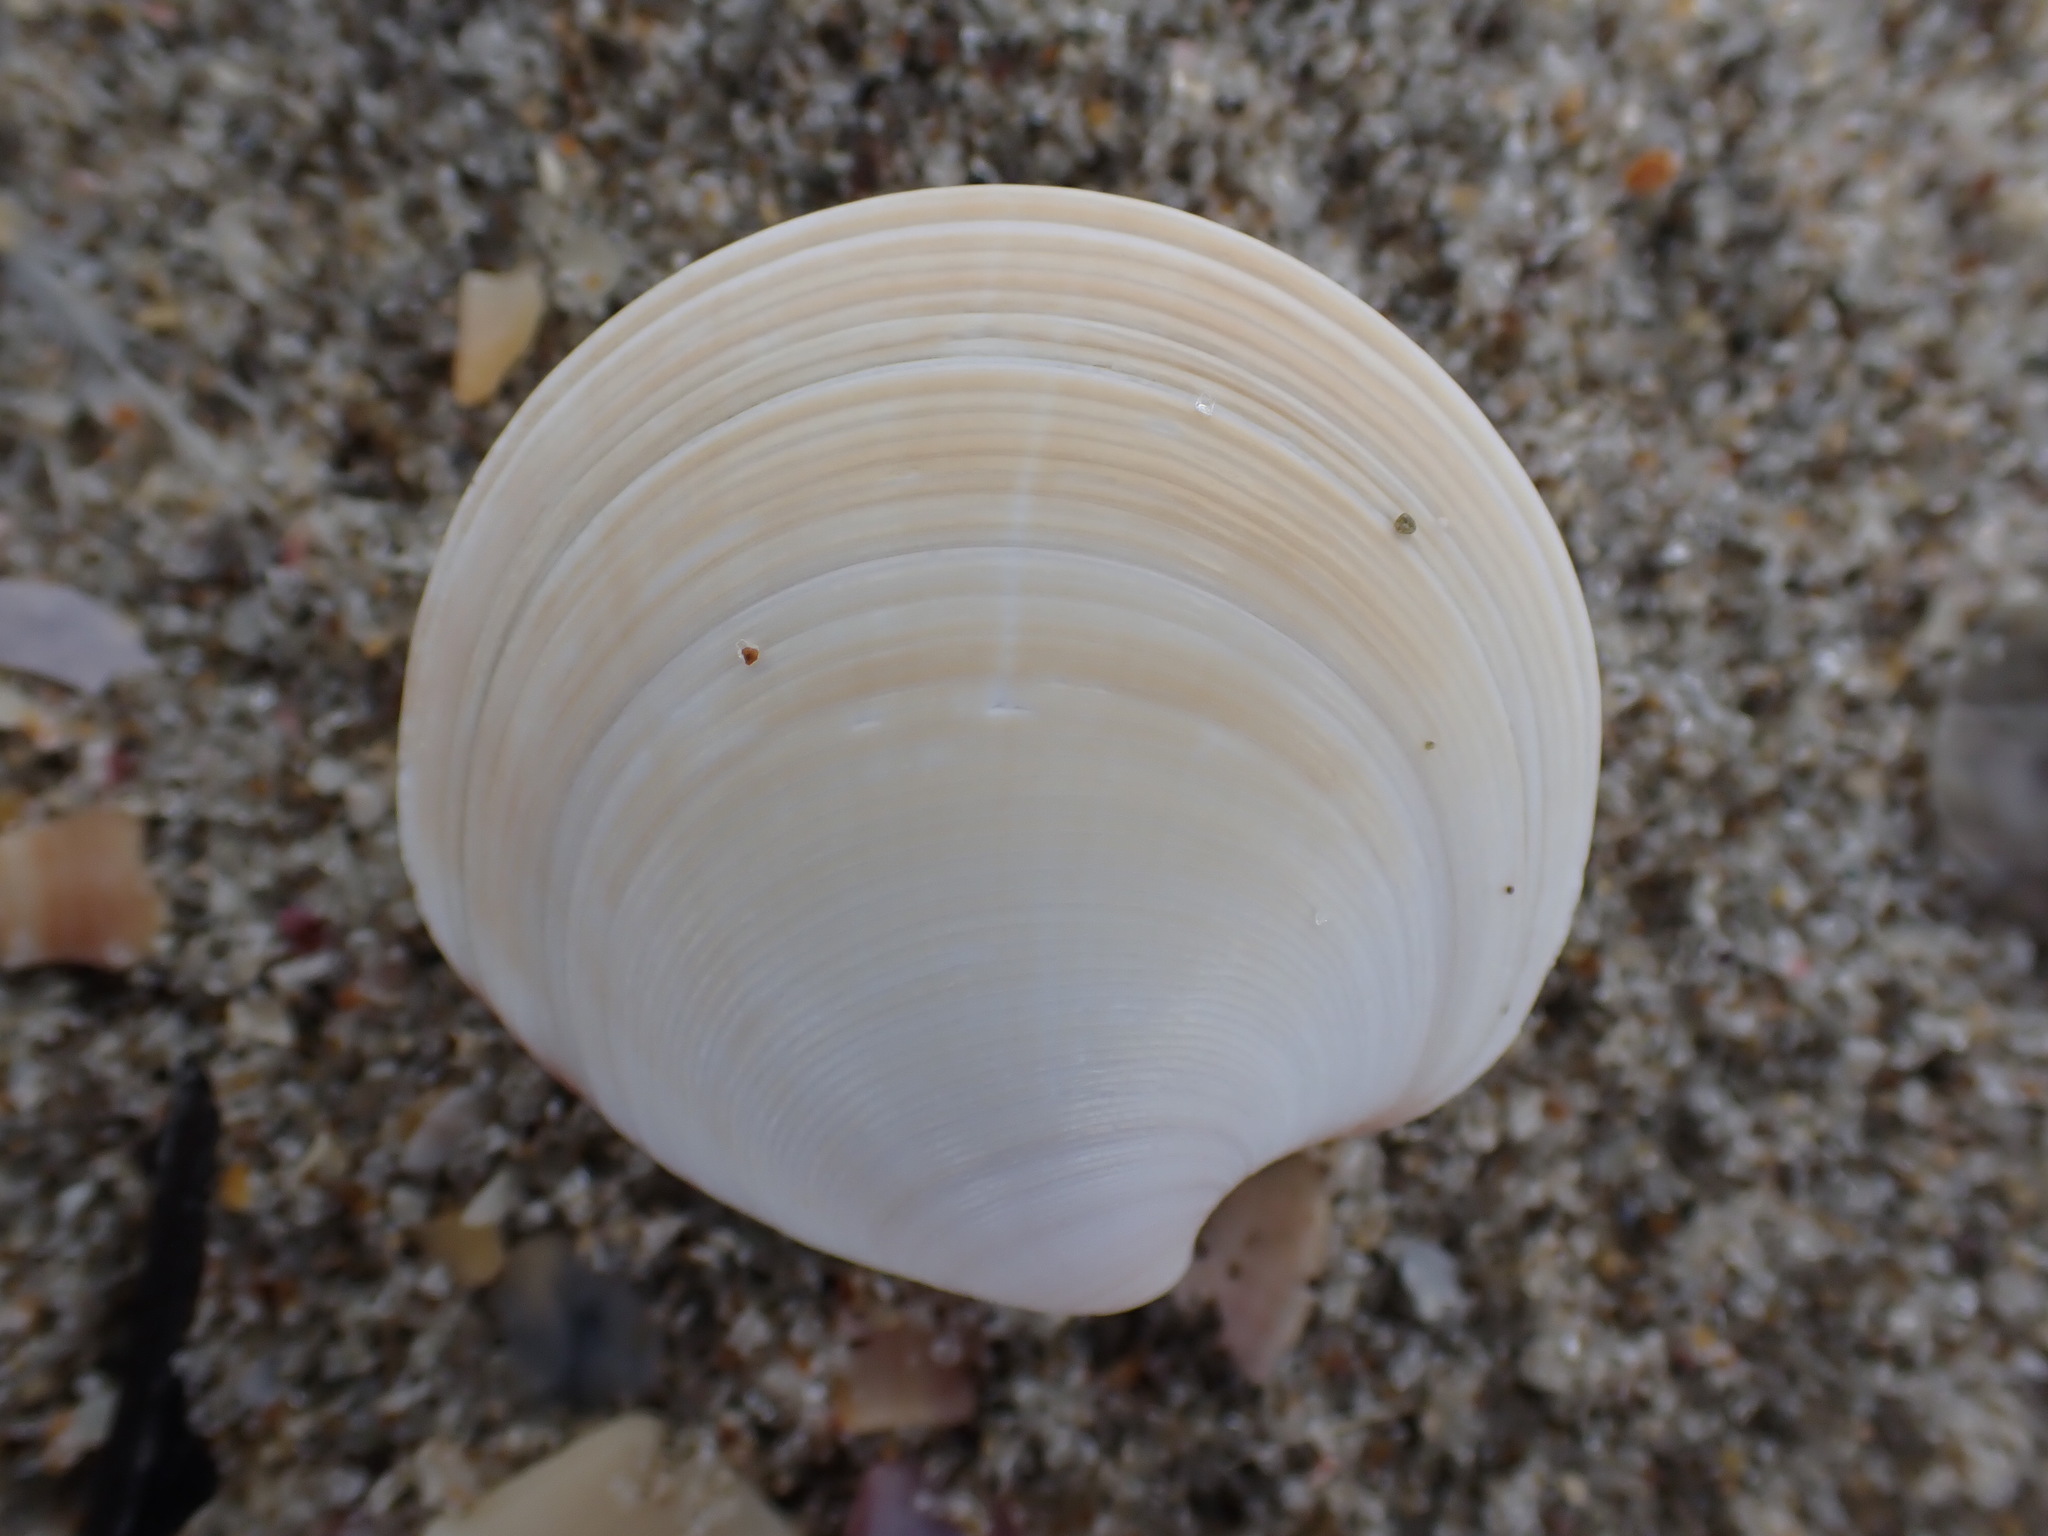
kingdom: Animalia
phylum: Mollusca
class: Bivalvia
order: Venerida
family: Veneridae
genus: Dosinia
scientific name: Dosinia subrosea
